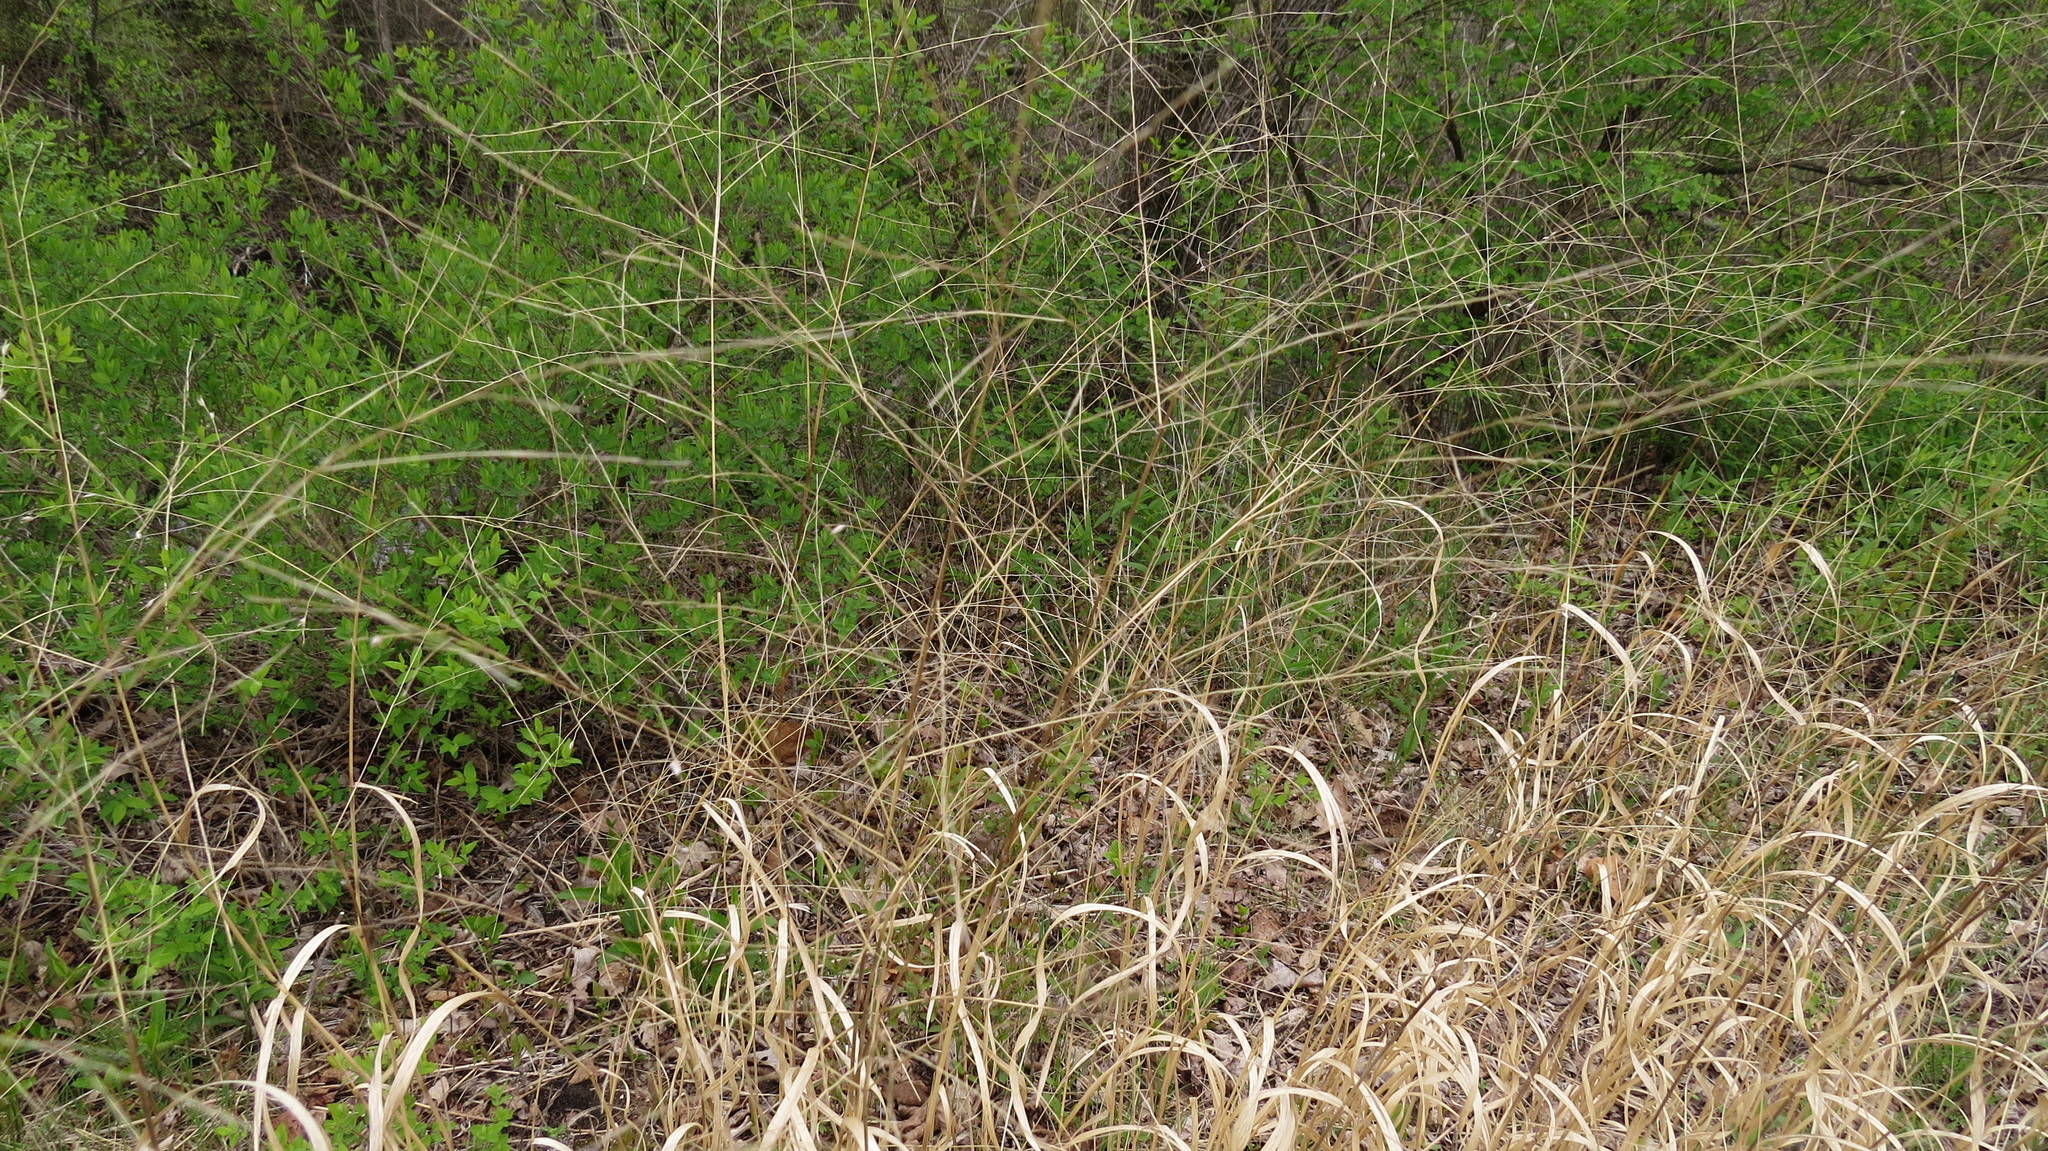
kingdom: Plantae
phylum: Tracheophyta
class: Liliopsida
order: Poales
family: Poaceae
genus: Panicum
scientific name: Panicum virgatum
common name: Switchgrass
